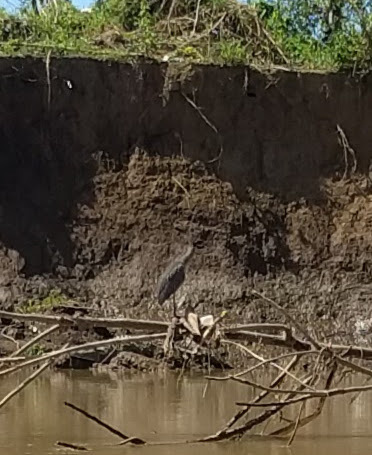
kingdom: Animalia
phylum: Chordata
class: Aves
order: Pelecaniformes
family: Ardeidae
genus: Ardea
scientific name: Ardea herodias
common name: Great blue heron
